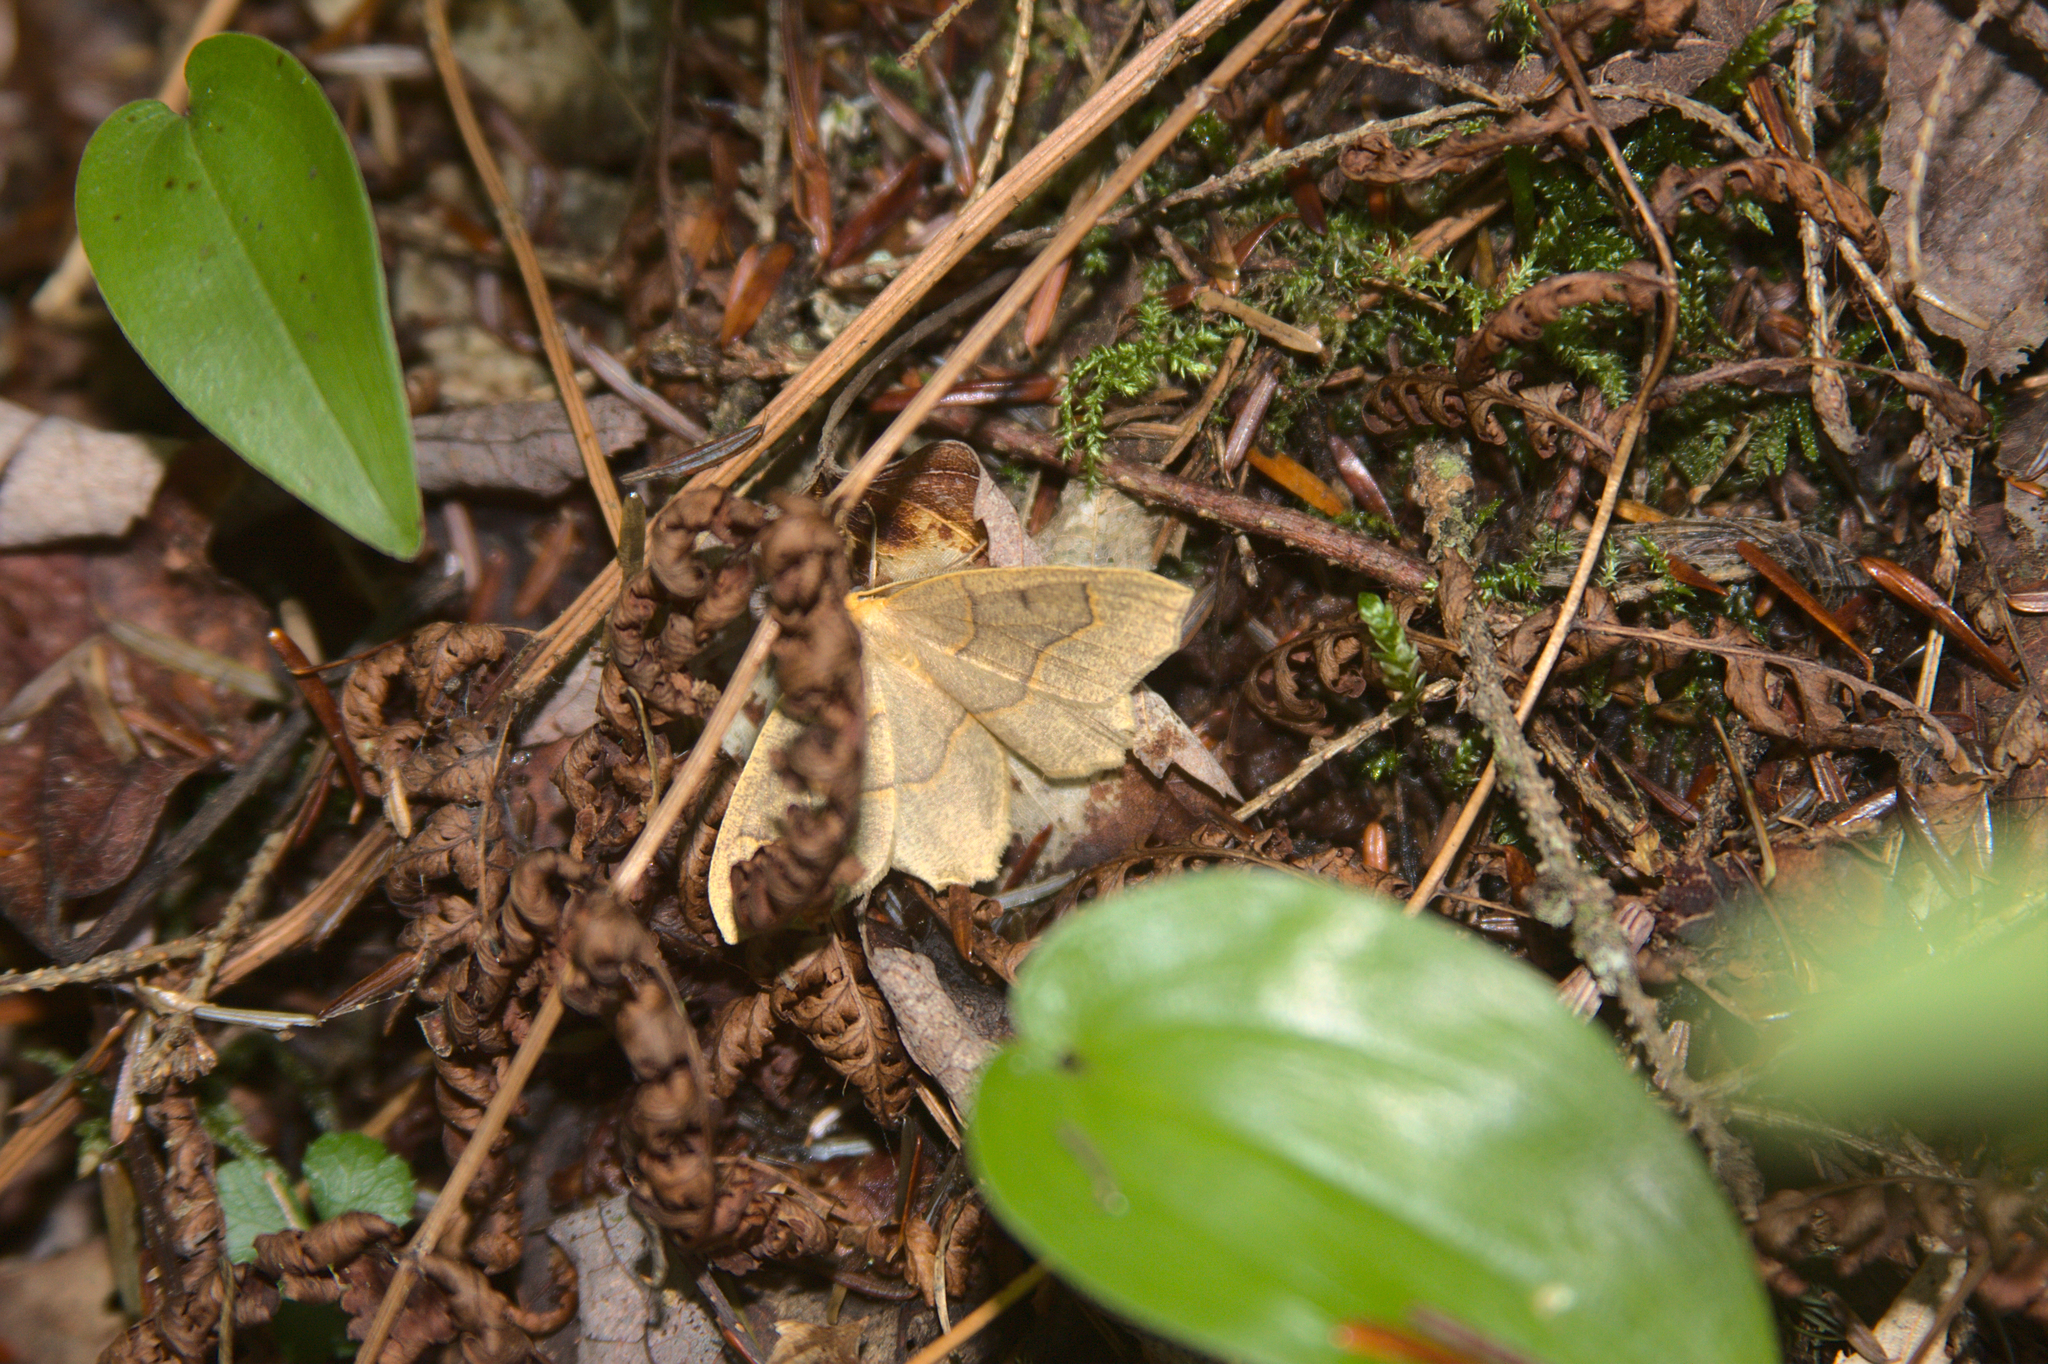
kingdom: Plantae
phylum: Tracheophyta
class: Liliopsida
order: Asparagales
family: Asparagaceae
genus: Maianthemum
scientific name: Maianthemum canadense
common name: False lily-of-the-valley
